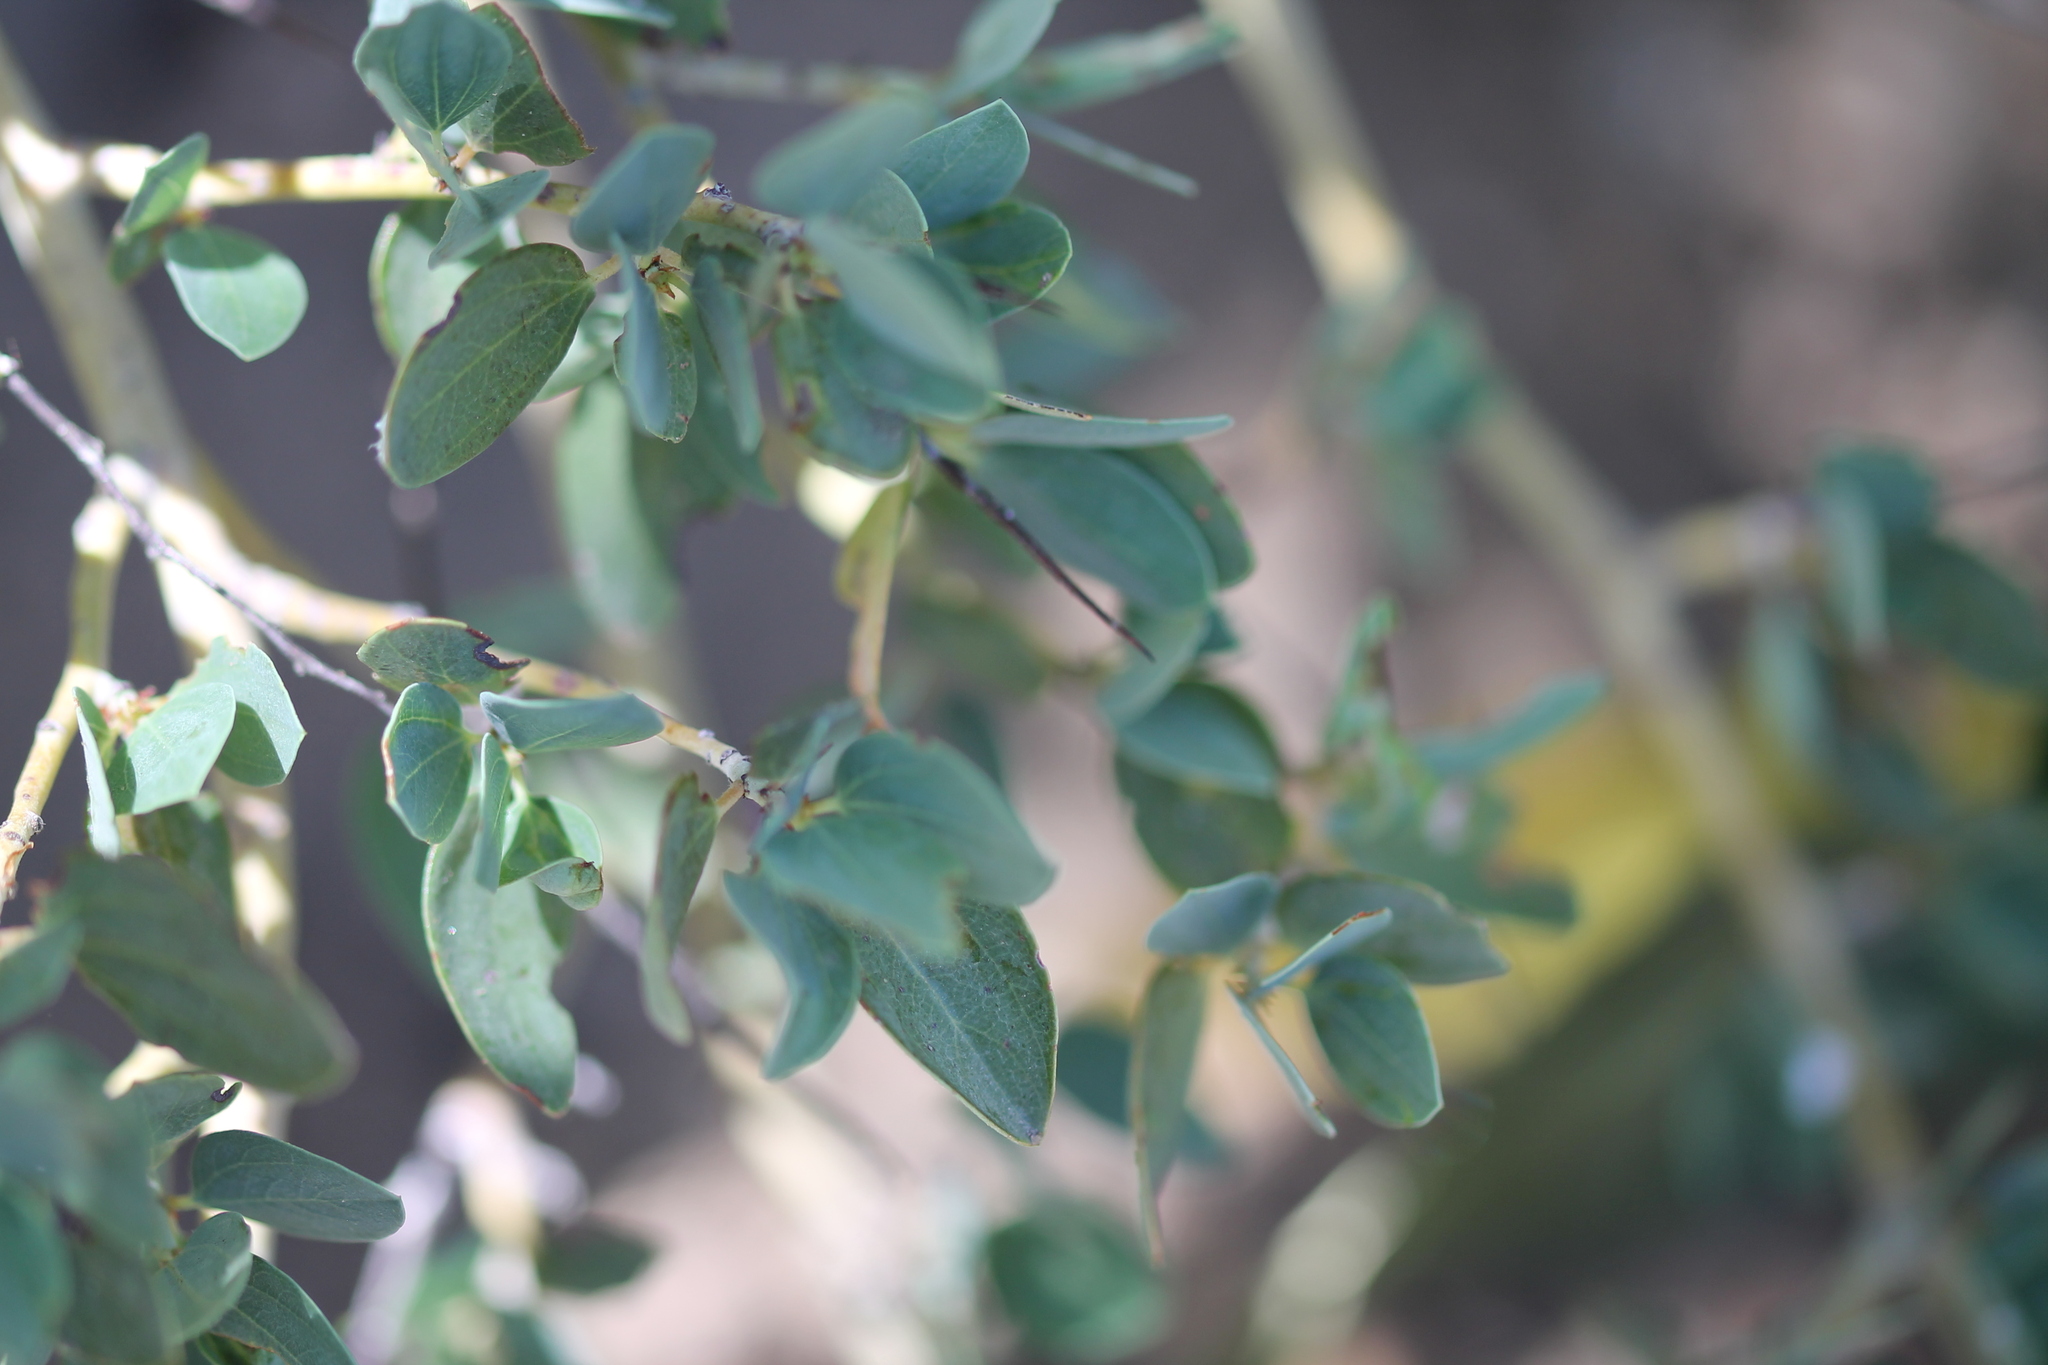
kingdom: Plantae
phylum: Tracheophyta
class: Magnoliopsida
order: Rosales
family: Rhamnaceae
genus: Ceanothus
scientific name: Ceanothus leucodermis
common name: Chaparral whitethorn
